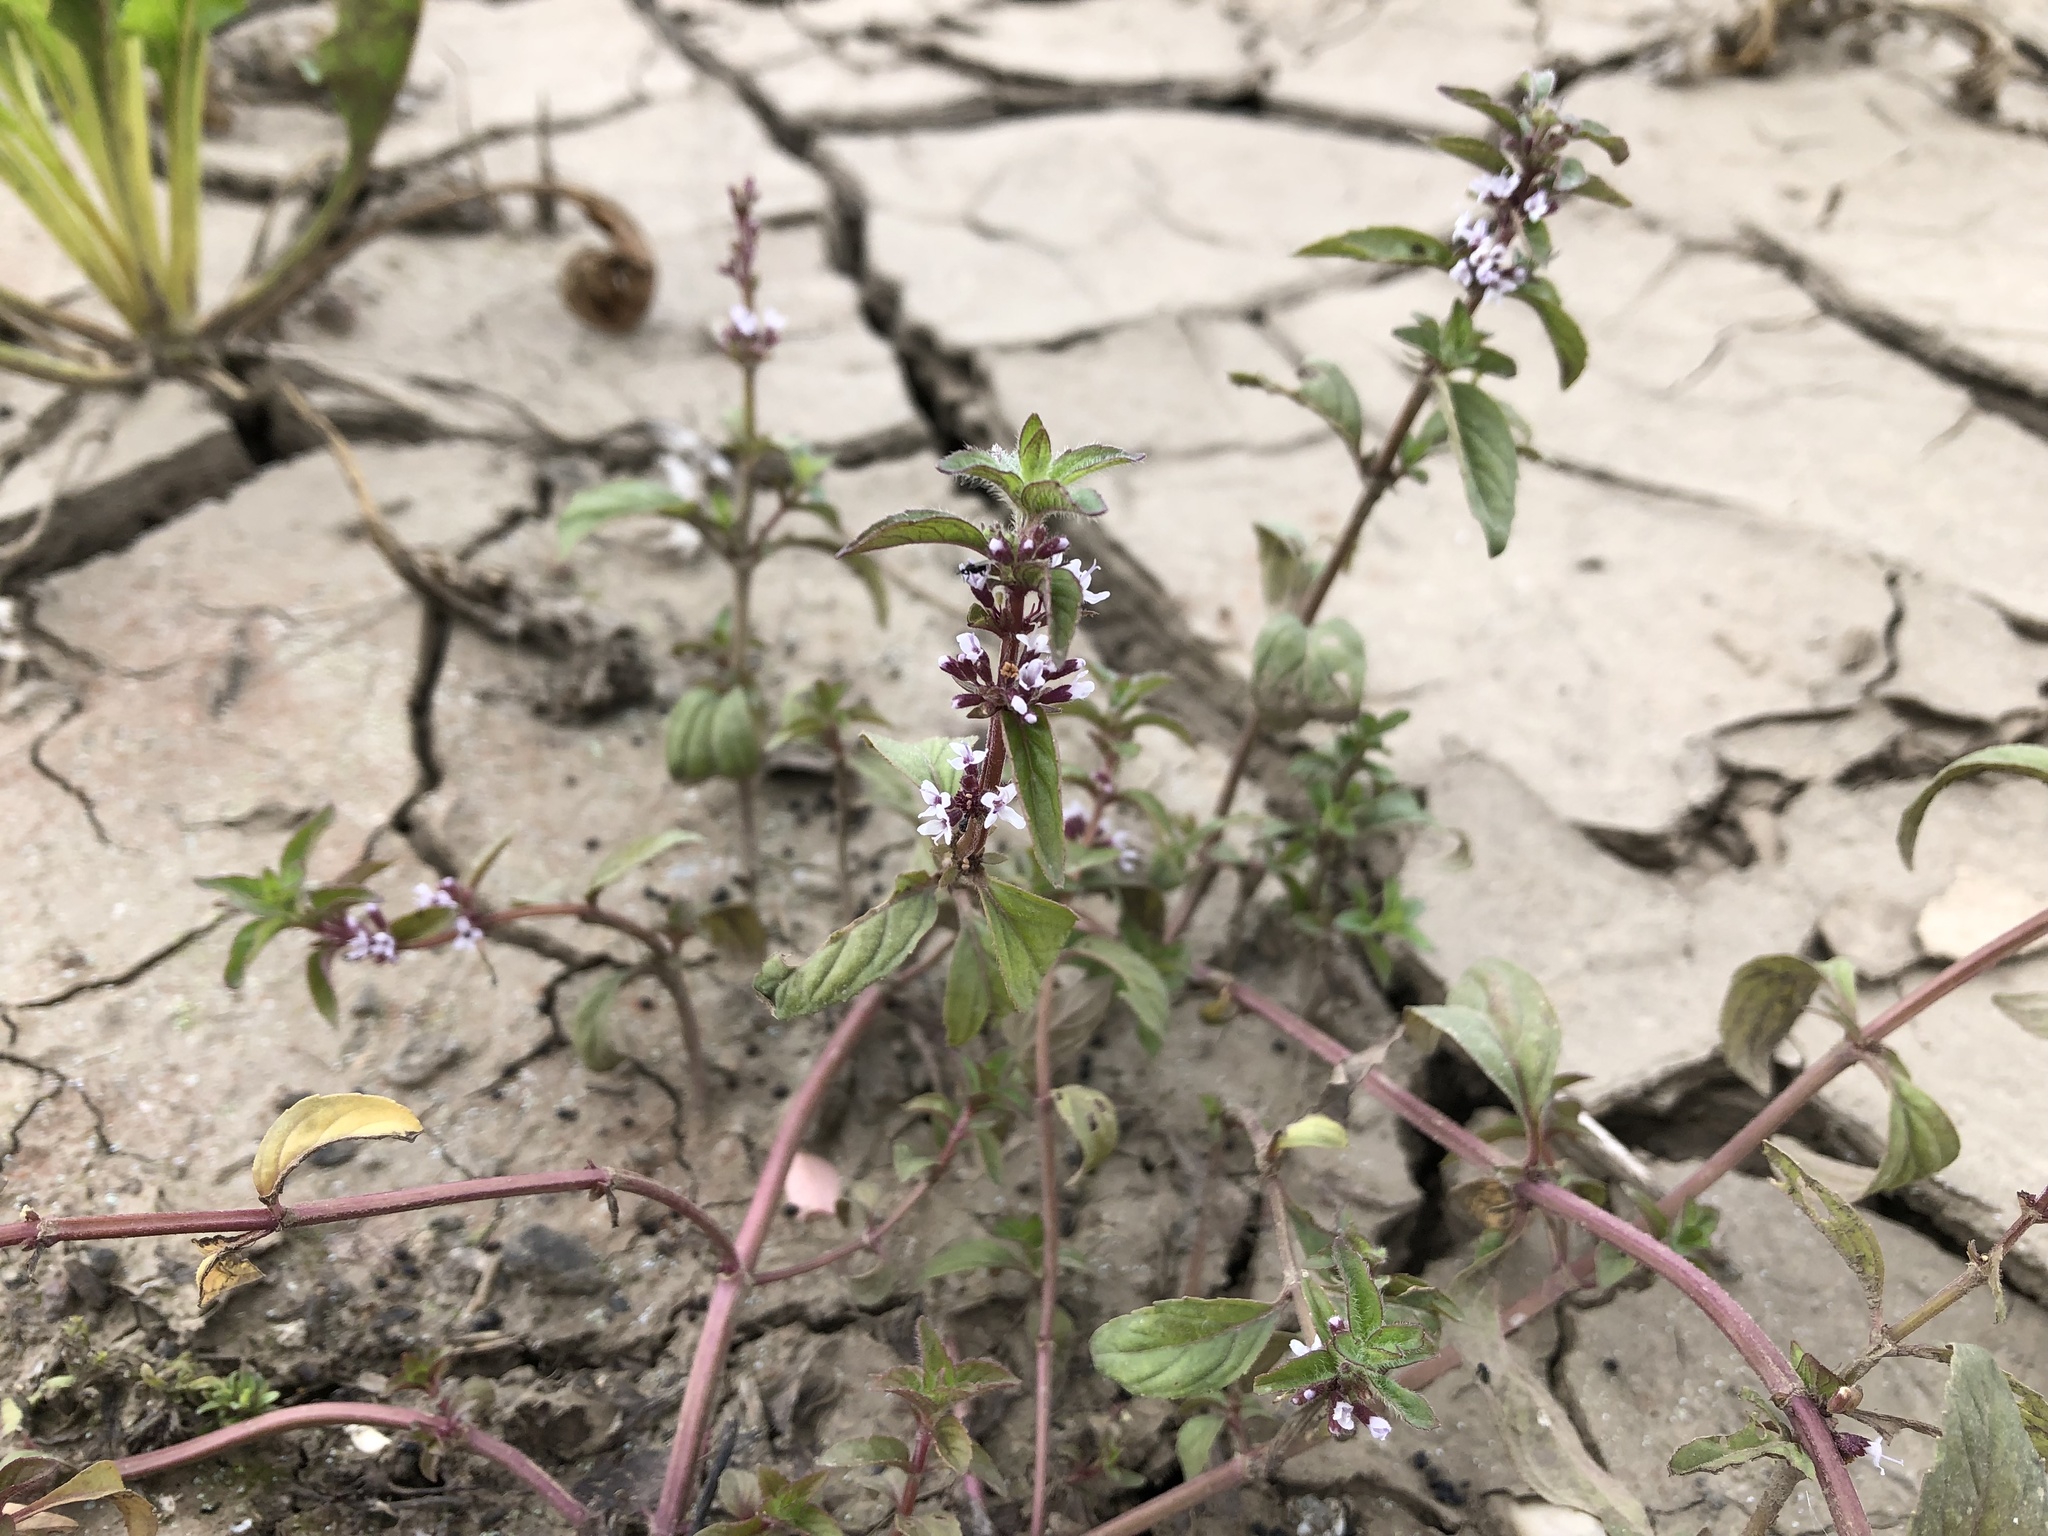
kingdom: Plantae
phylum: Tracheophyta
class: Magnoliopsida
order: Lamiales
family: Lamiaceae
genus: Mentha
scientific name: Mentha arvensis
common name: Corn mint
